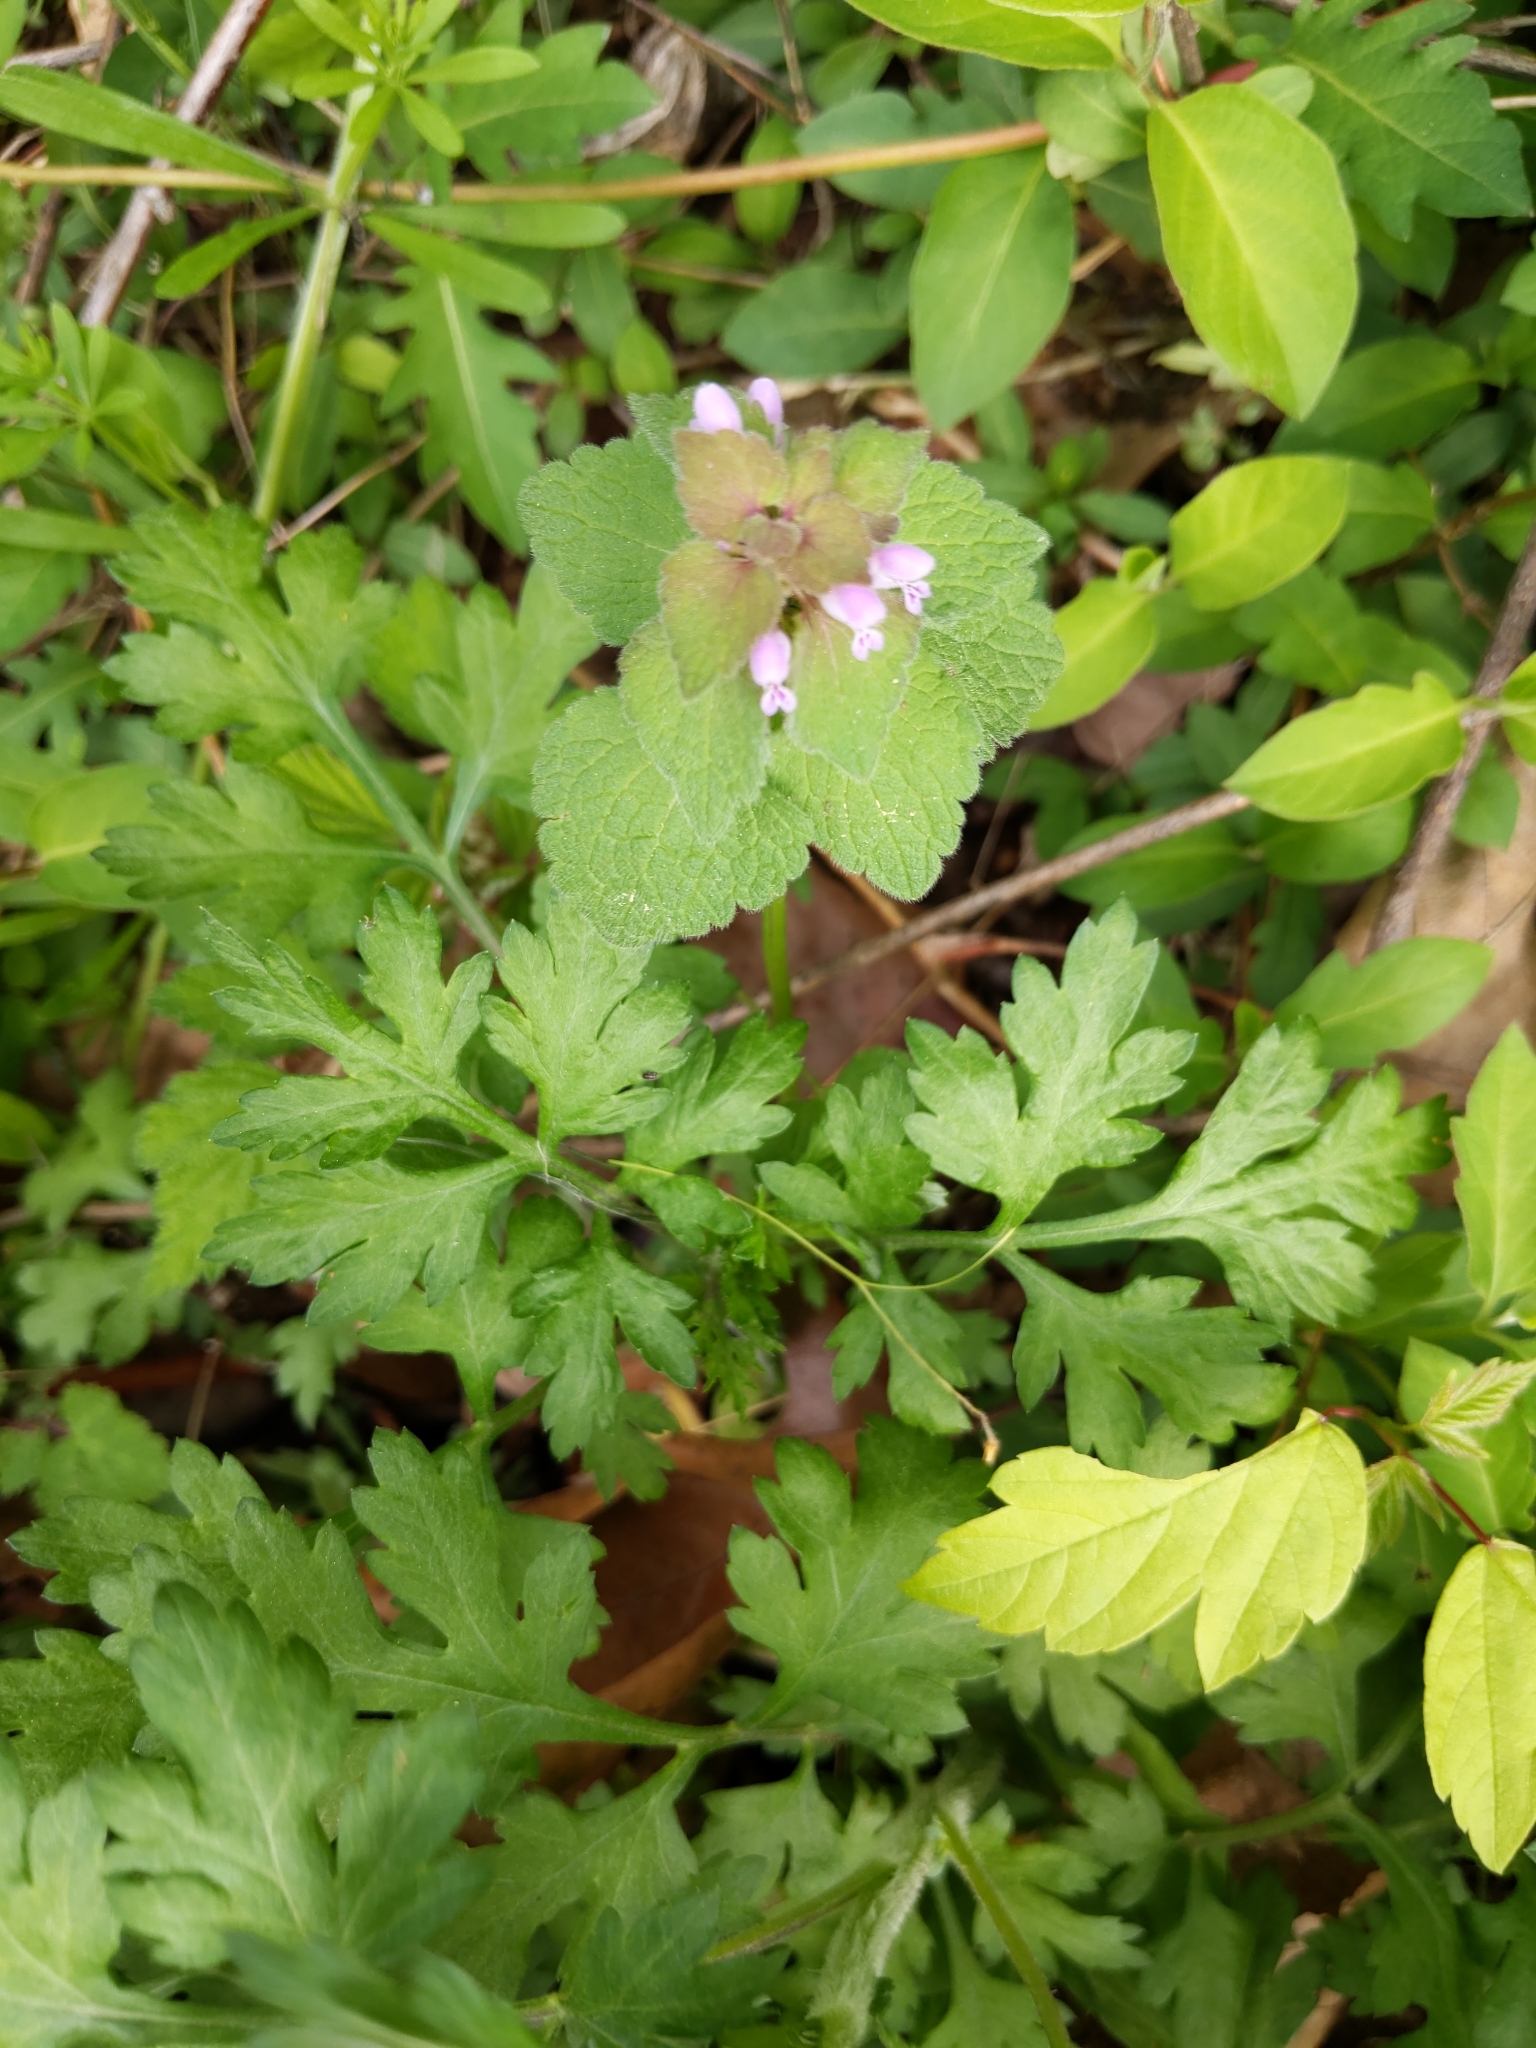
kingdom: Plantae
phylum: Tracheophyta
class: Magnoliopsida
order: Lamiales
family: Lamiaceae
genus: Lamium
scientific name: Lamium purpureum
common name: Red dead-nettle
